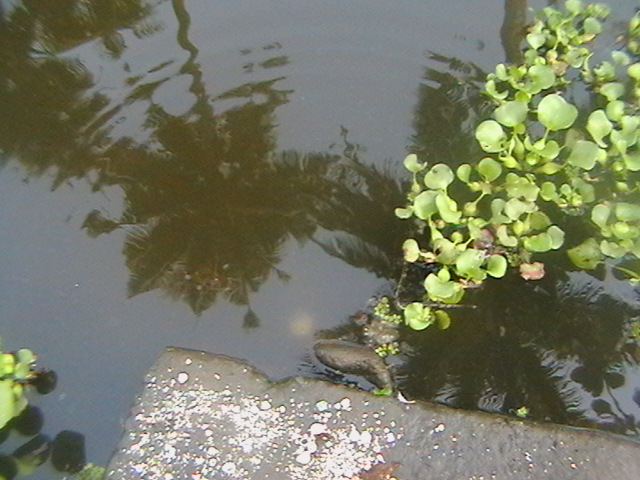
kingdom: Plantae
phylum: Tracheophyta
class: Liliopsida
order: Commelinales
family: Pontederiaceae
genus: Pontederia
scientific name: Pontederia crassipes
